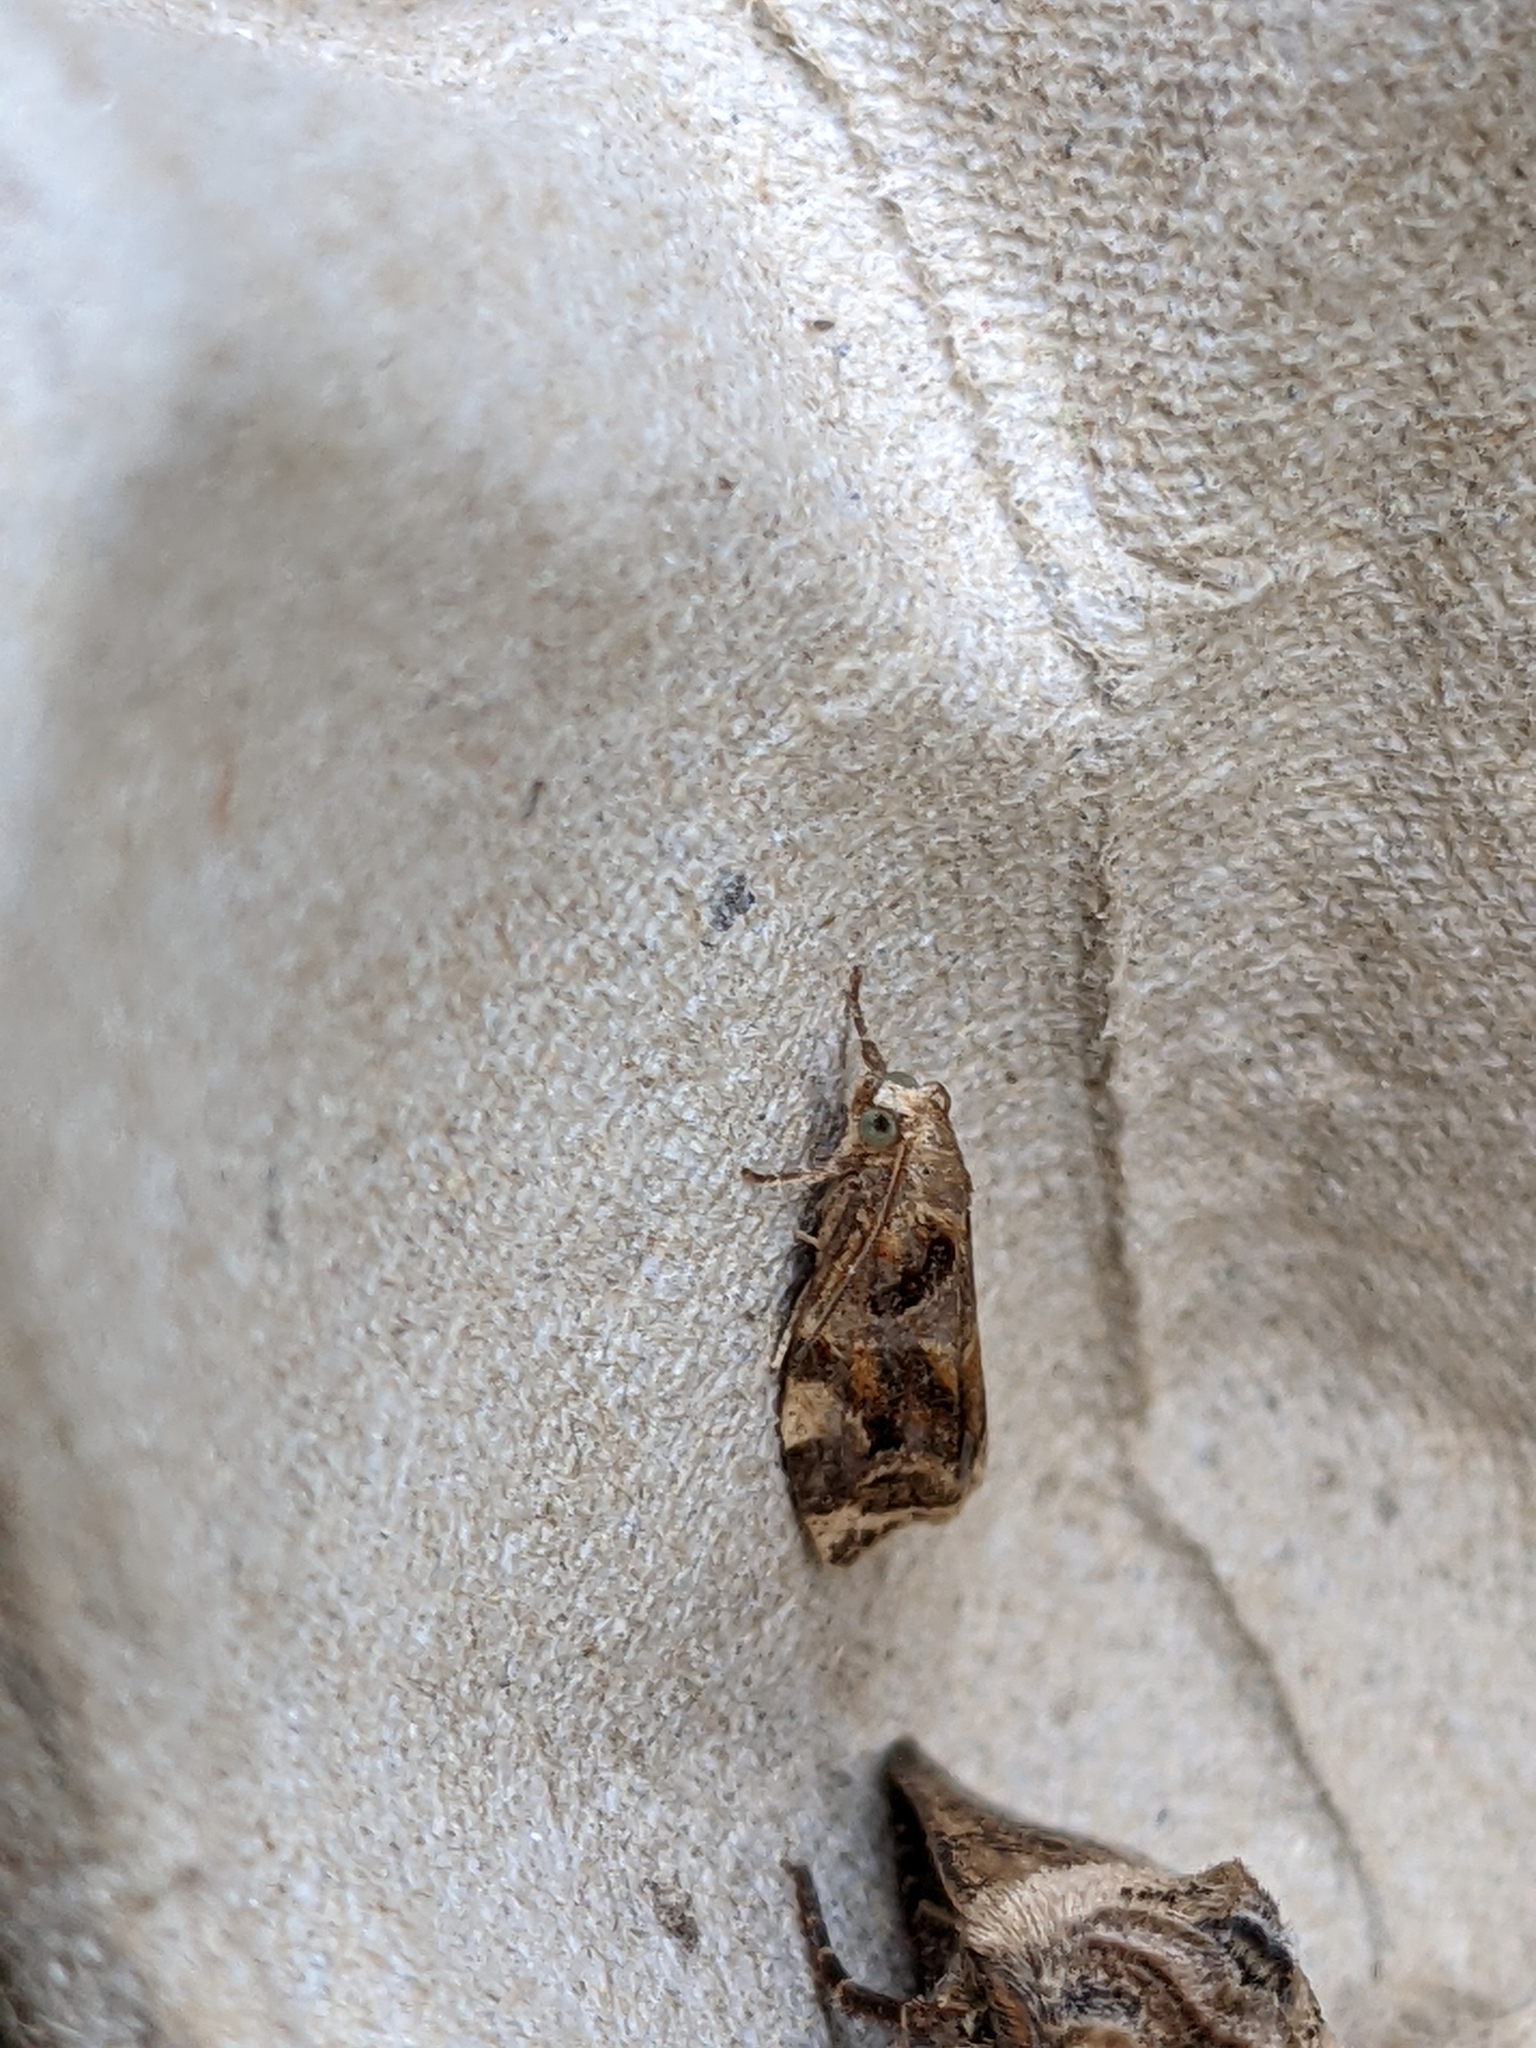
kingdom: Animalia
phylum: Arthropoda
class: Insecta
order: Lepidoptera
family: Tortricidae
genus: Archips
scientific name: Archips xylosteana
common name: Variegated golden tortrix
